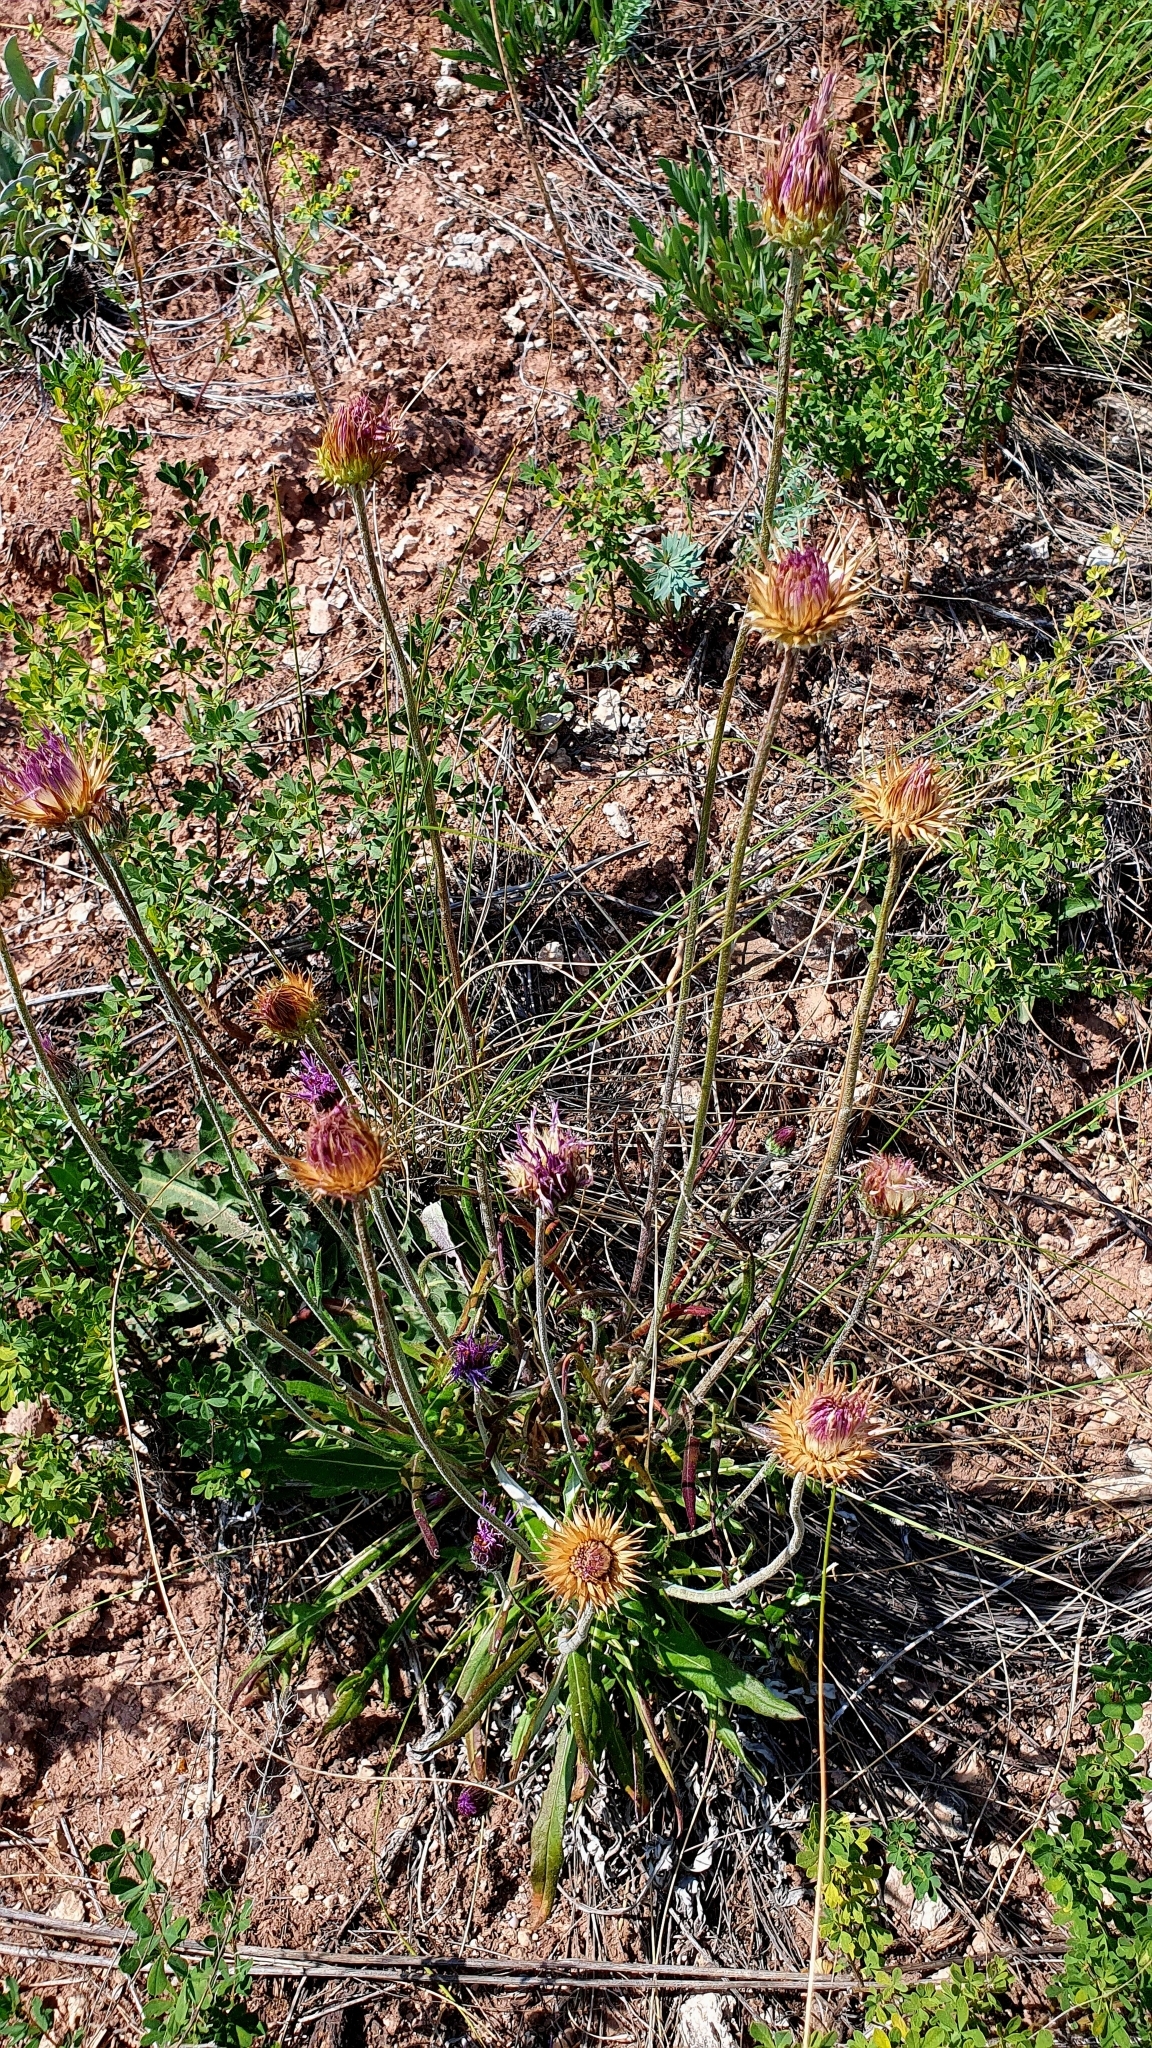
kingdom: Plantae
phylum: Tracheophyta
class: Magnoliopsida
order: Asterales
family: Asteraceae
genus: Jurinea
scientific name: Jurinea ledebourii
